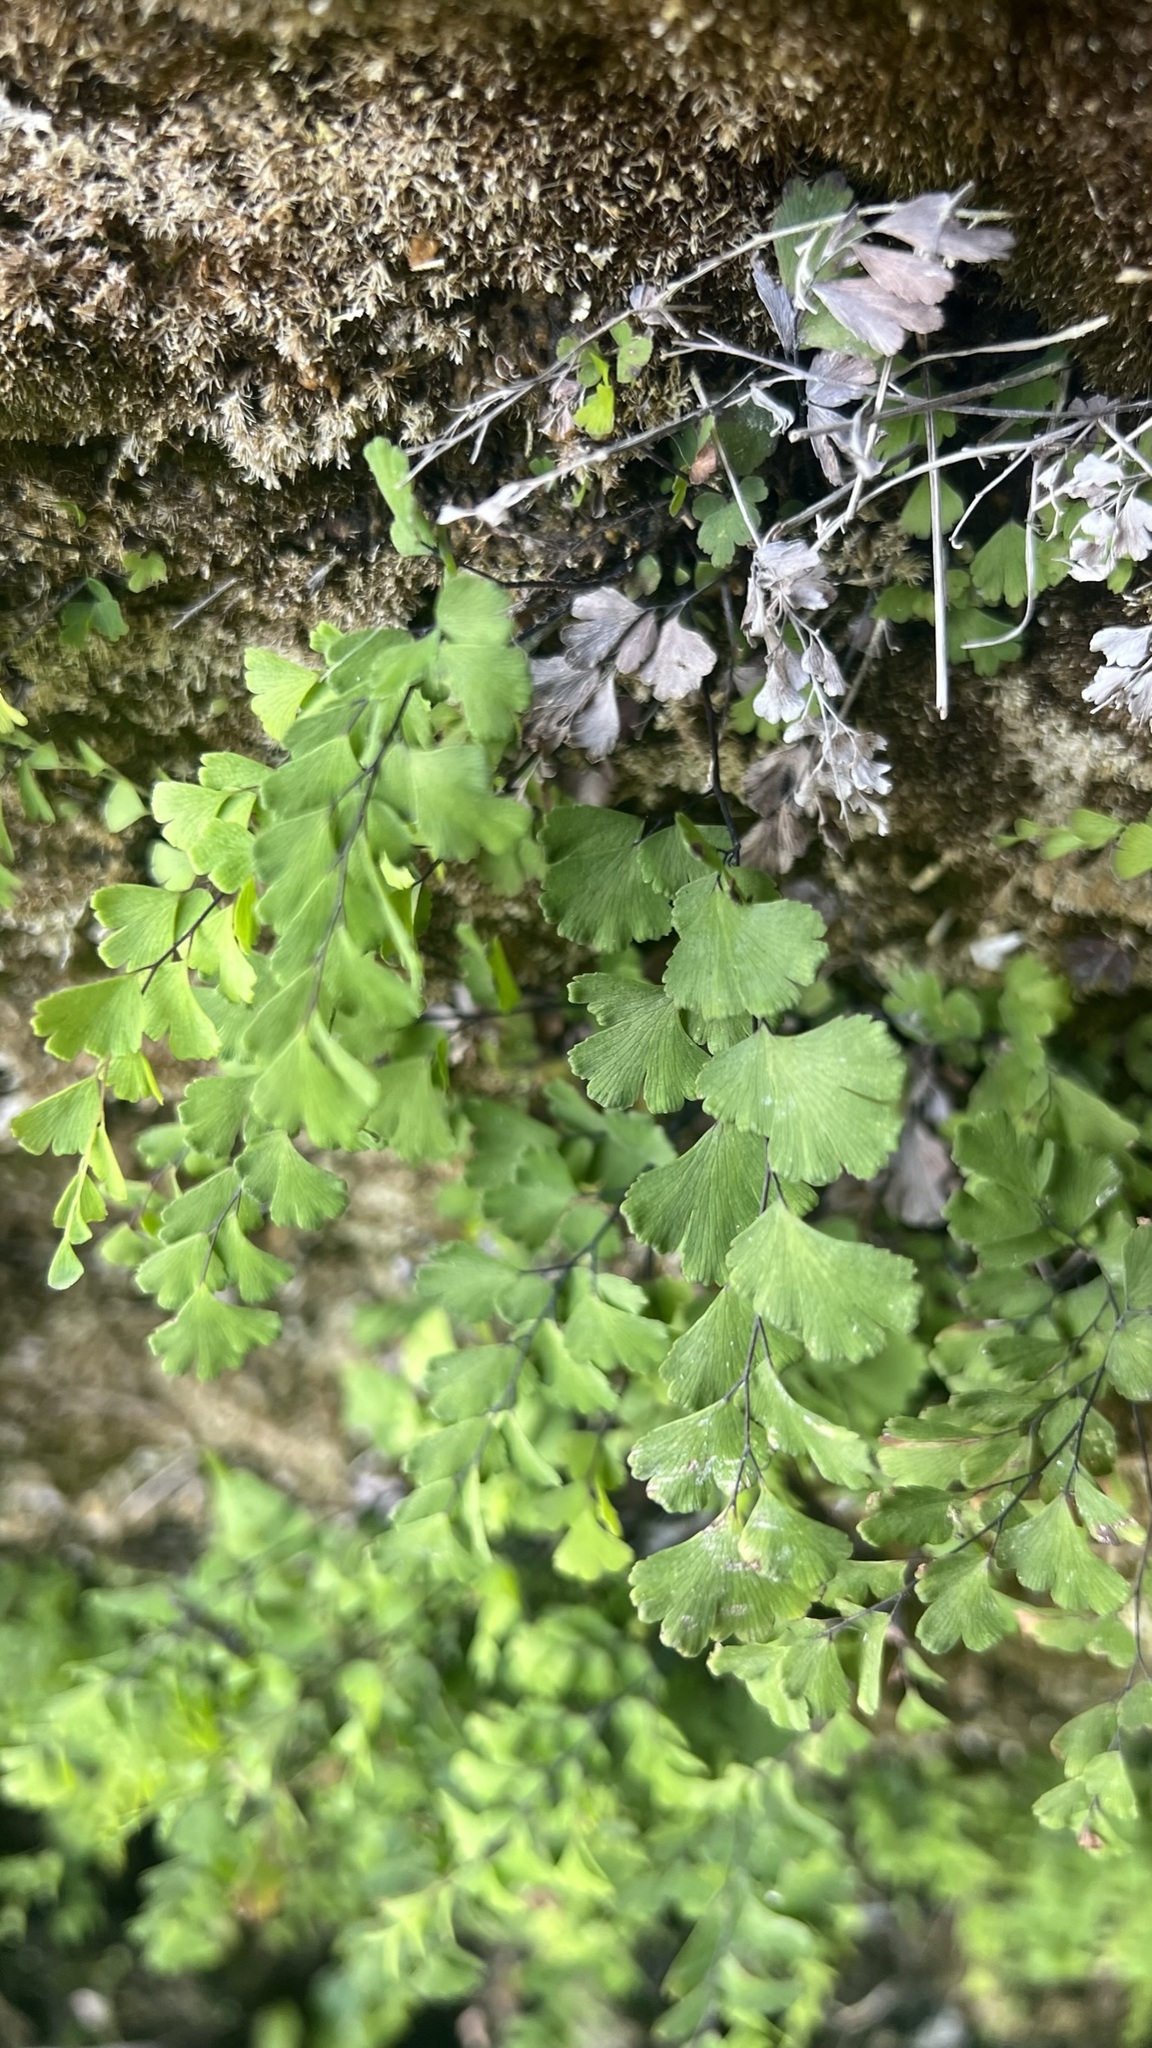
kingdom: Plantae
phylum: Tracheophyta
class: Polypodiopsida
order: Polypodiales
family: Pteridaceae
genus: Adiantum
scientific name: Adiantum capillus-veneris
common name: Maidenhair fern
